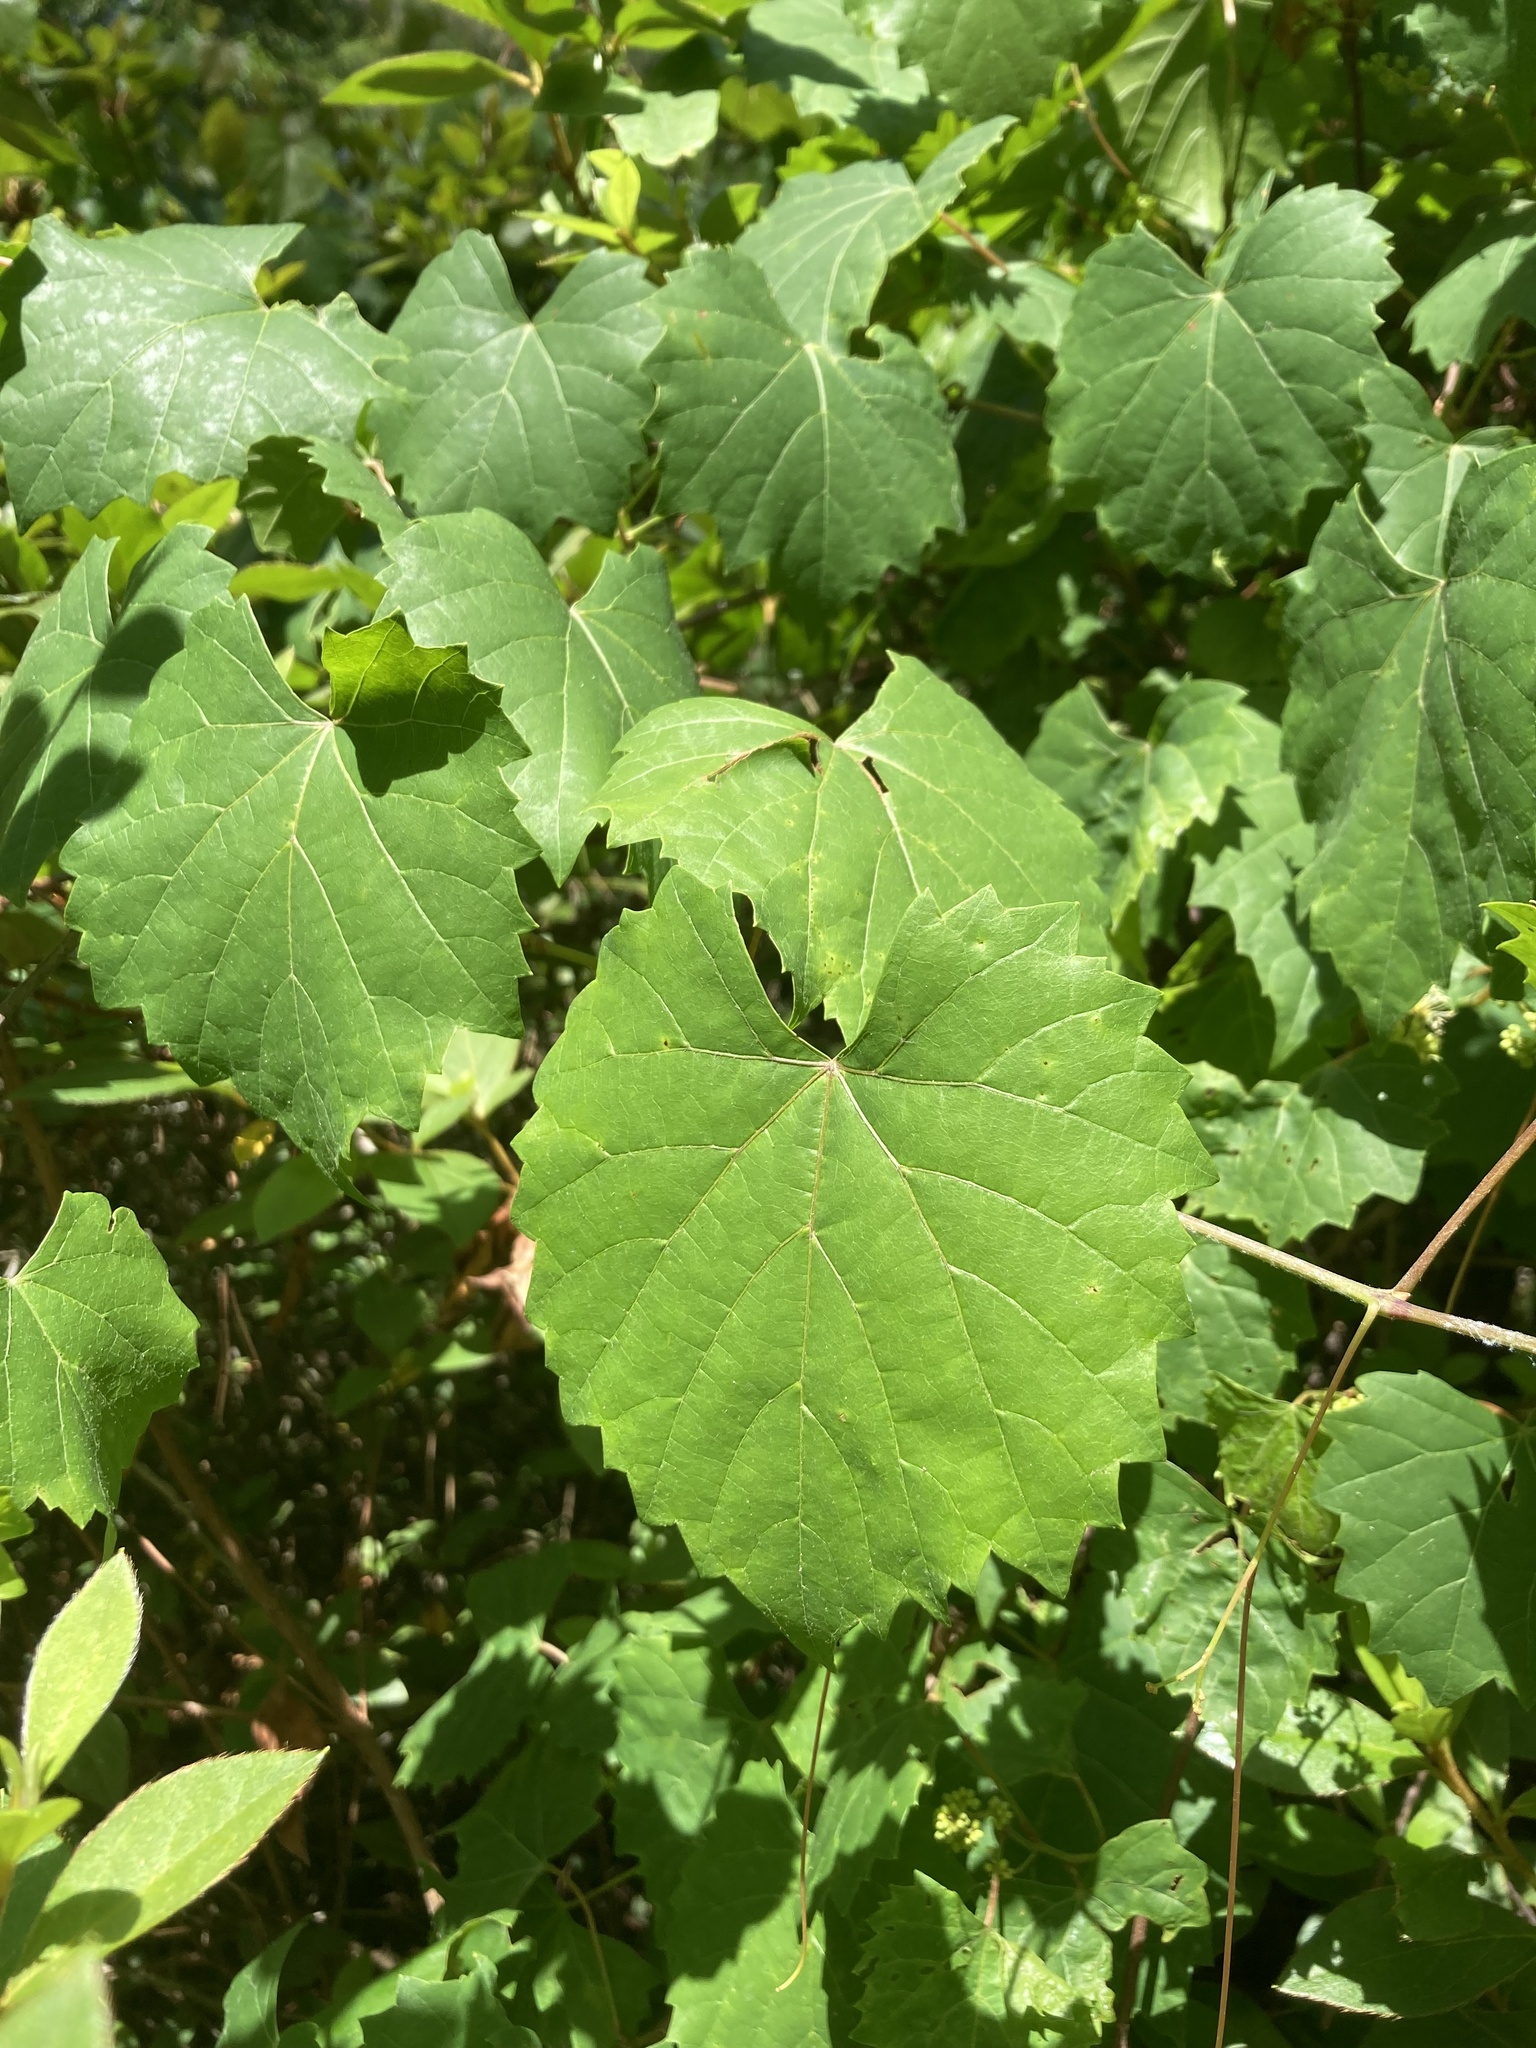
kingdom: Plantae
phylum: Tracheophyta
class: Magnoliopsida
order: Vitales
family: Vitaceae
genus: Vitis
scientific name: Vitis rotundifolia
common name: Muscadine grape
